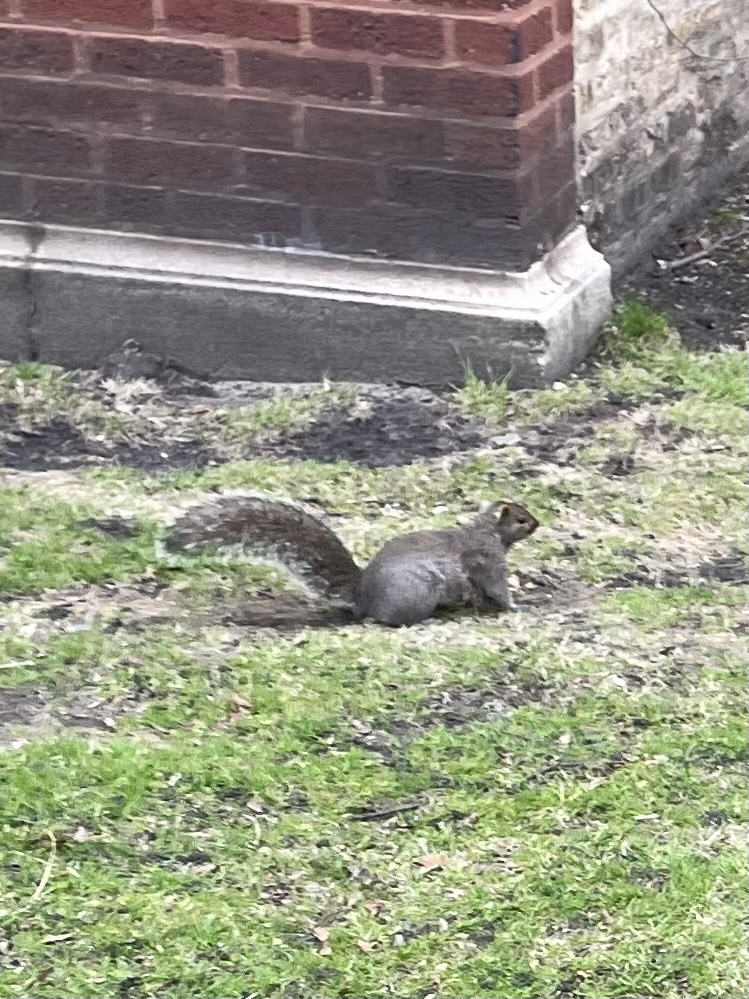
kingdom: Animalia
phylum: Chordata
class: Mammalia
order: Rodentia
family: Sciuridae
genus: Sciurus
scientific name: Sciurus carolinensis
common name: Eastern gray squirrel
